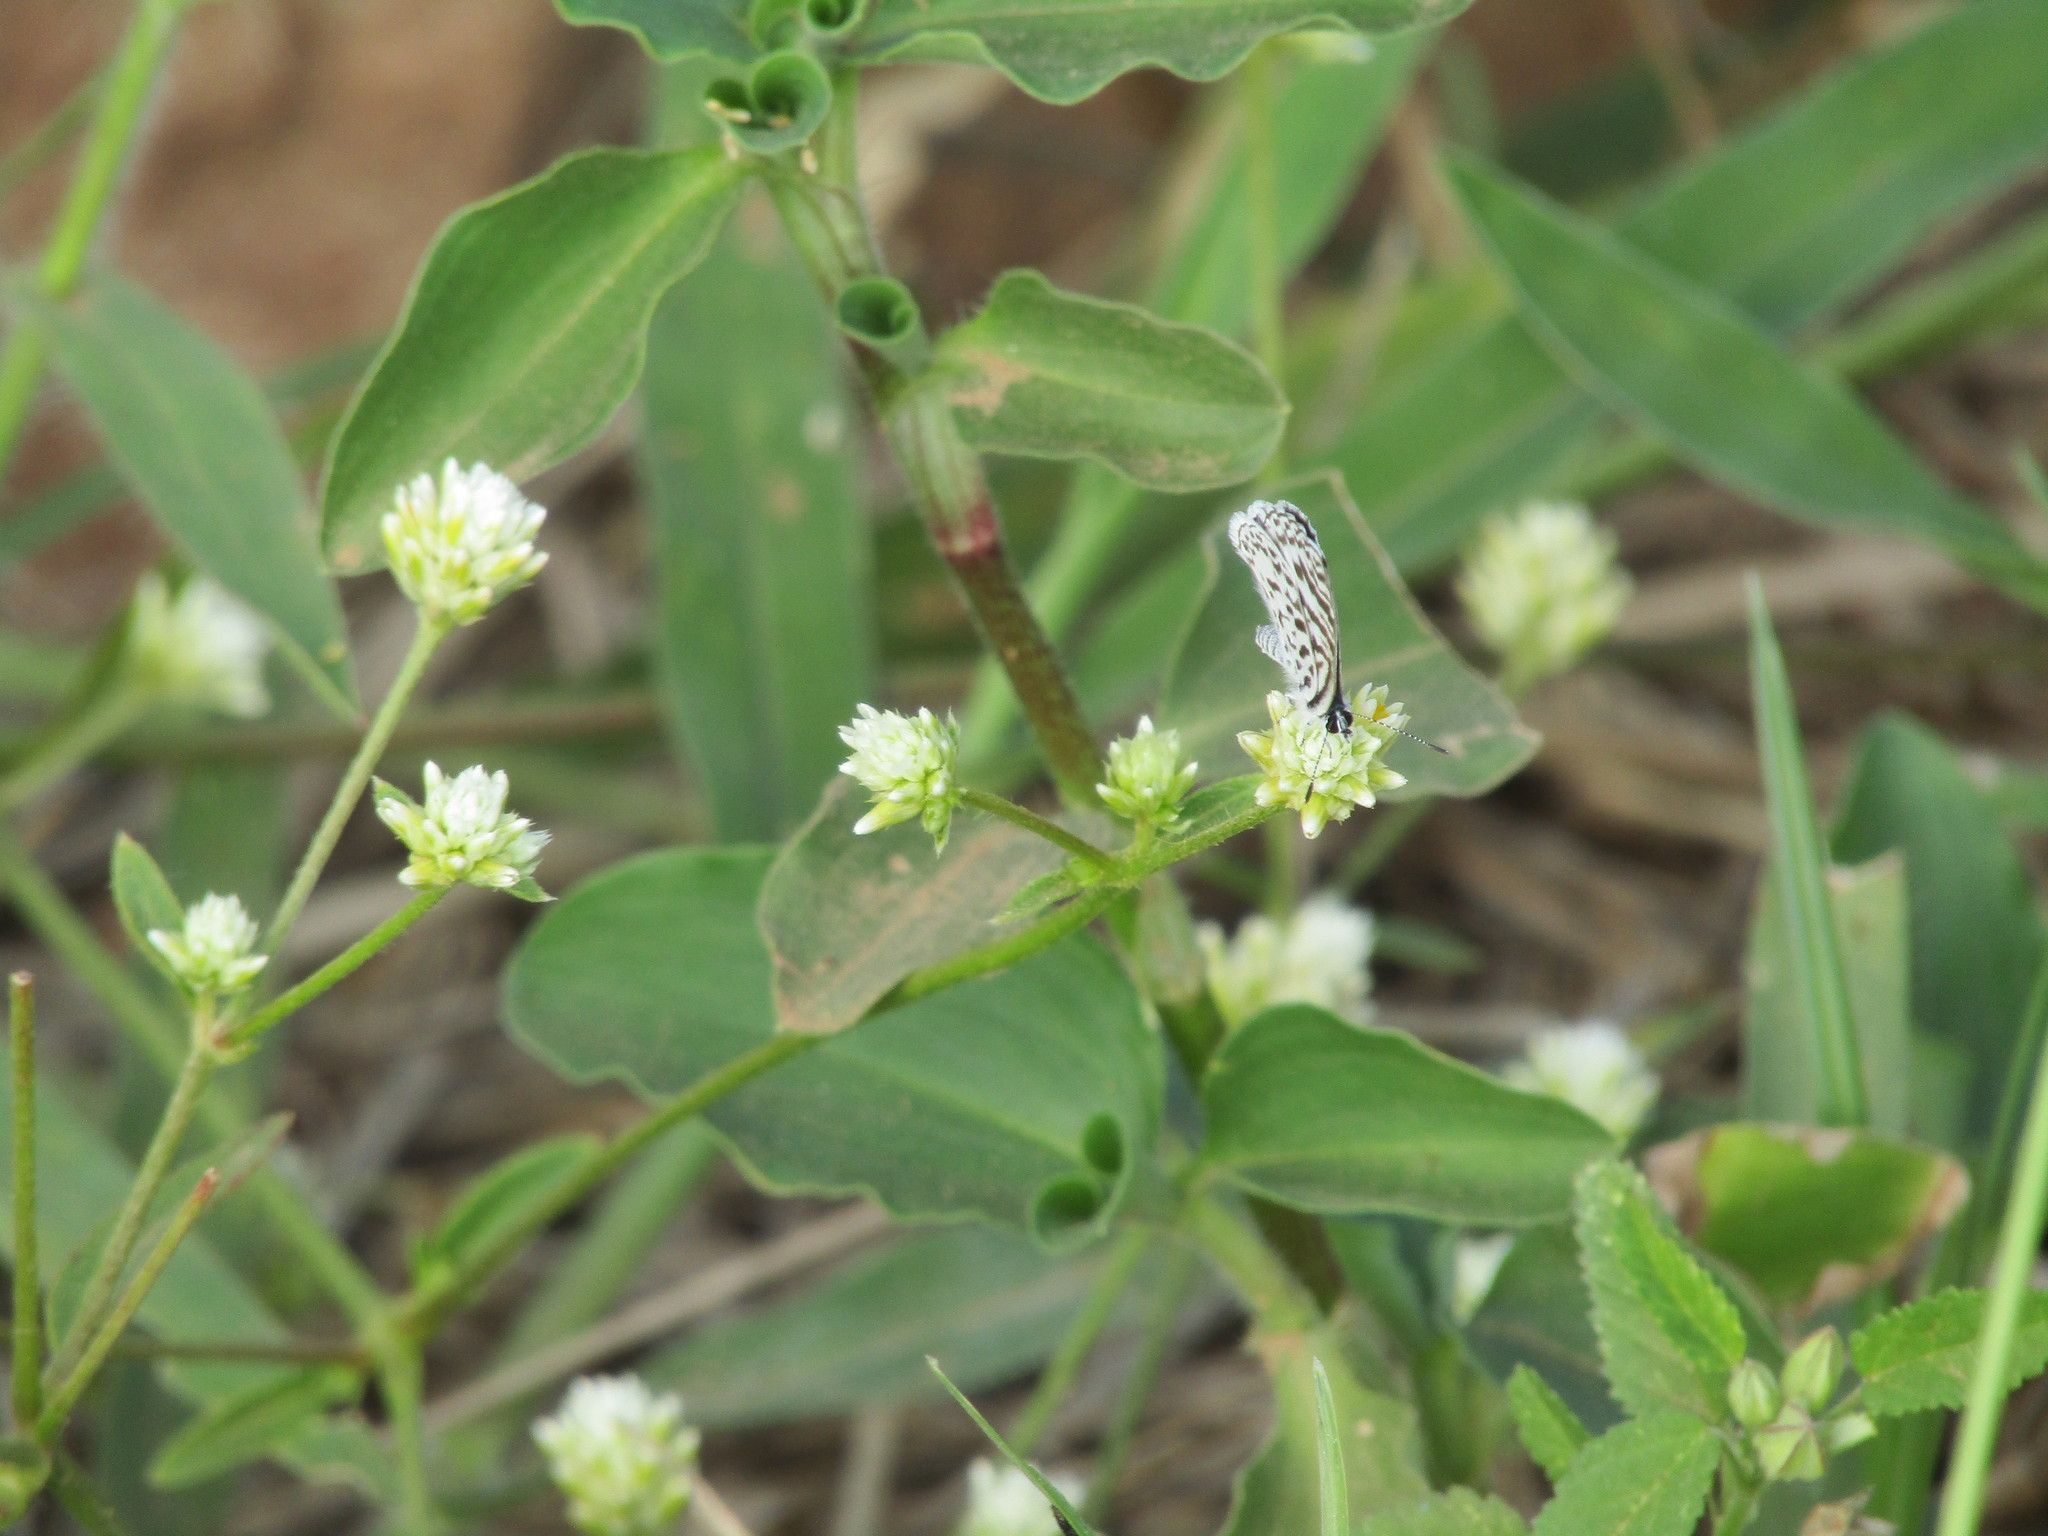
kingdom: Animalia
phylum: Arthropoda
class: Insecta
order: Lepidoptera
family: Lycaenidae
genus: Leptotes
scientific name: Leptotes cassius
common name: Cassius blue
